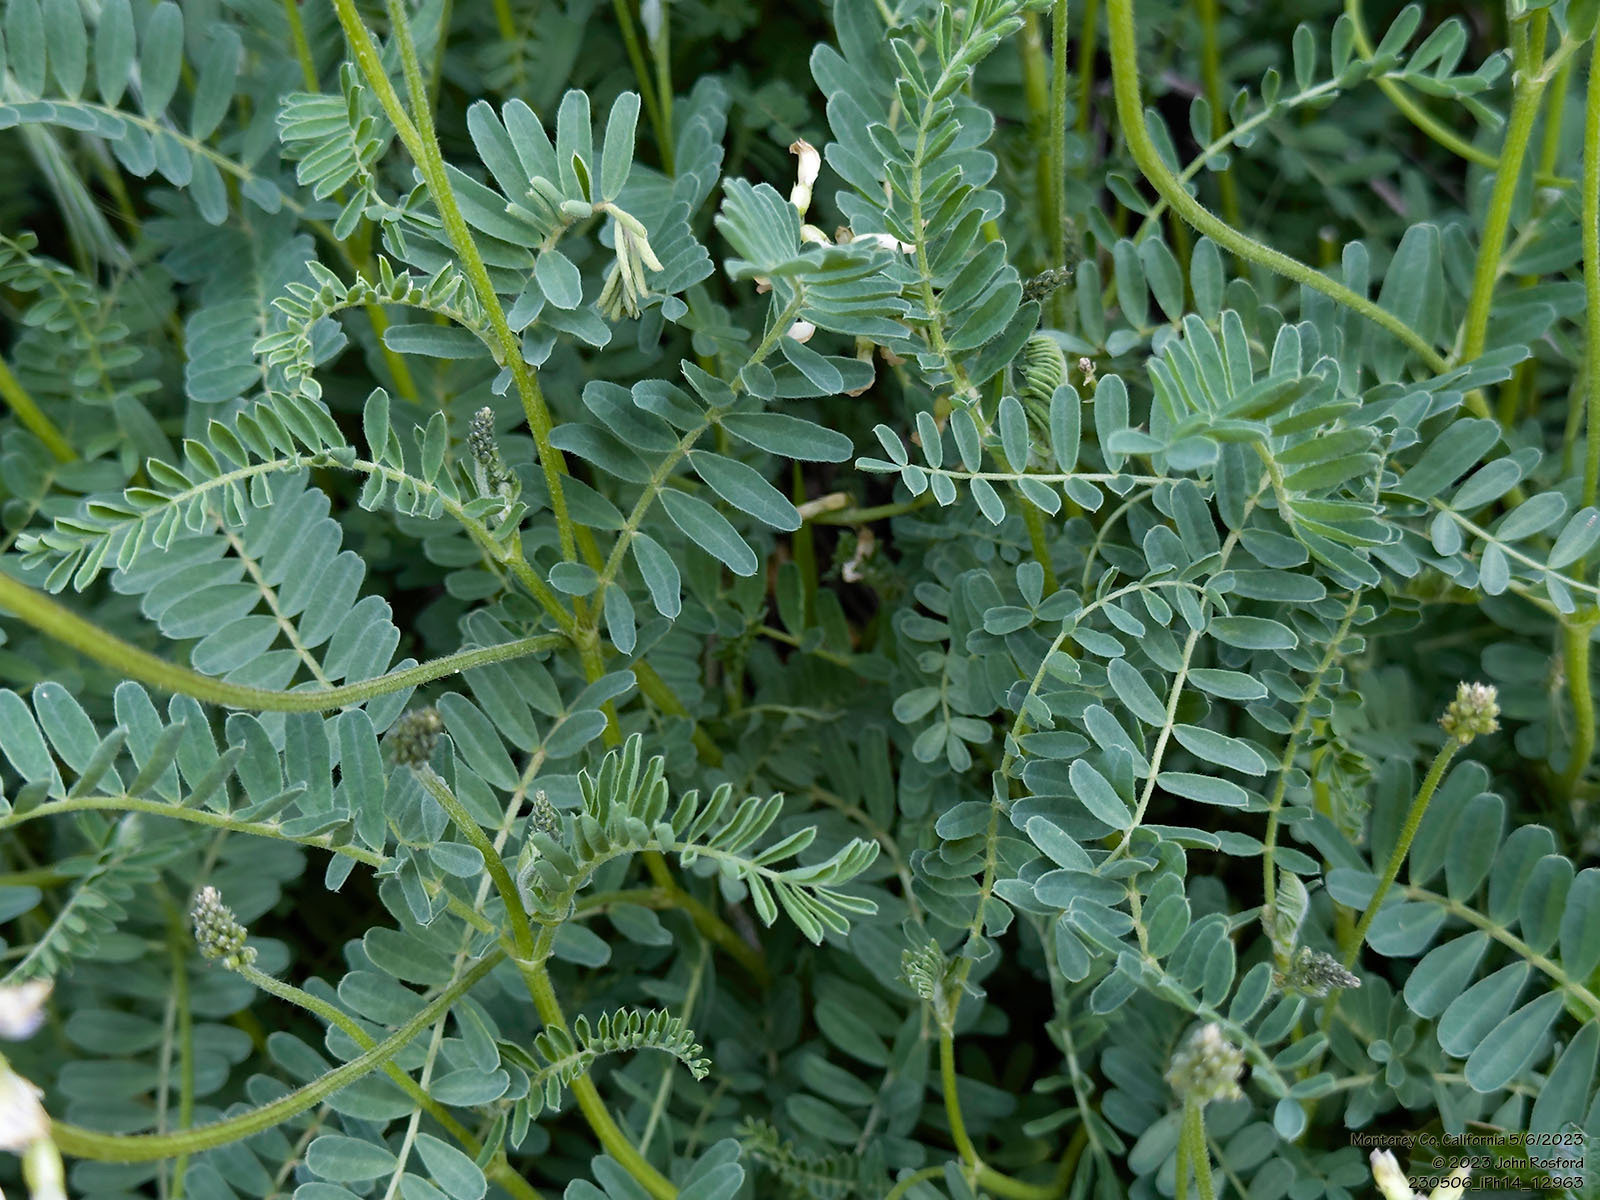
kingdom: Plantae
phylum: Tracheophyta
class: Magnoliopsida
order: Fabales
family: Fabaceae
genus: Astragalus
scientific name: Astragalus nuttallii
